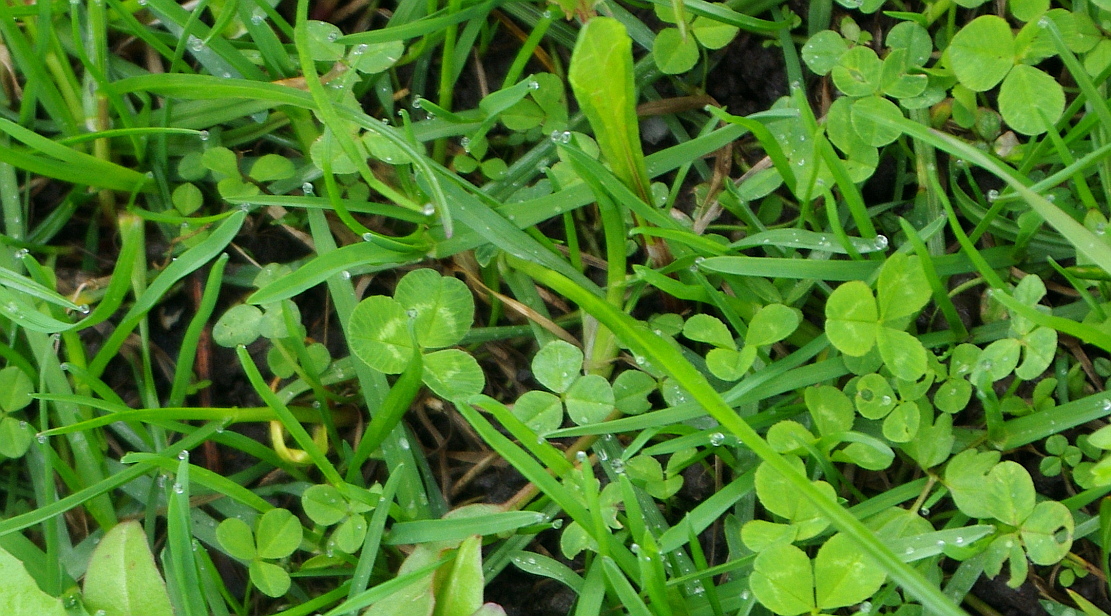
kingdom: Plantae
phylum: Tracheophyta
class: Magnoliopsida
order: Fabales
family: Fabaceae
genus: Trifolium
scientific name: Trifolium repens
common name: White clover
